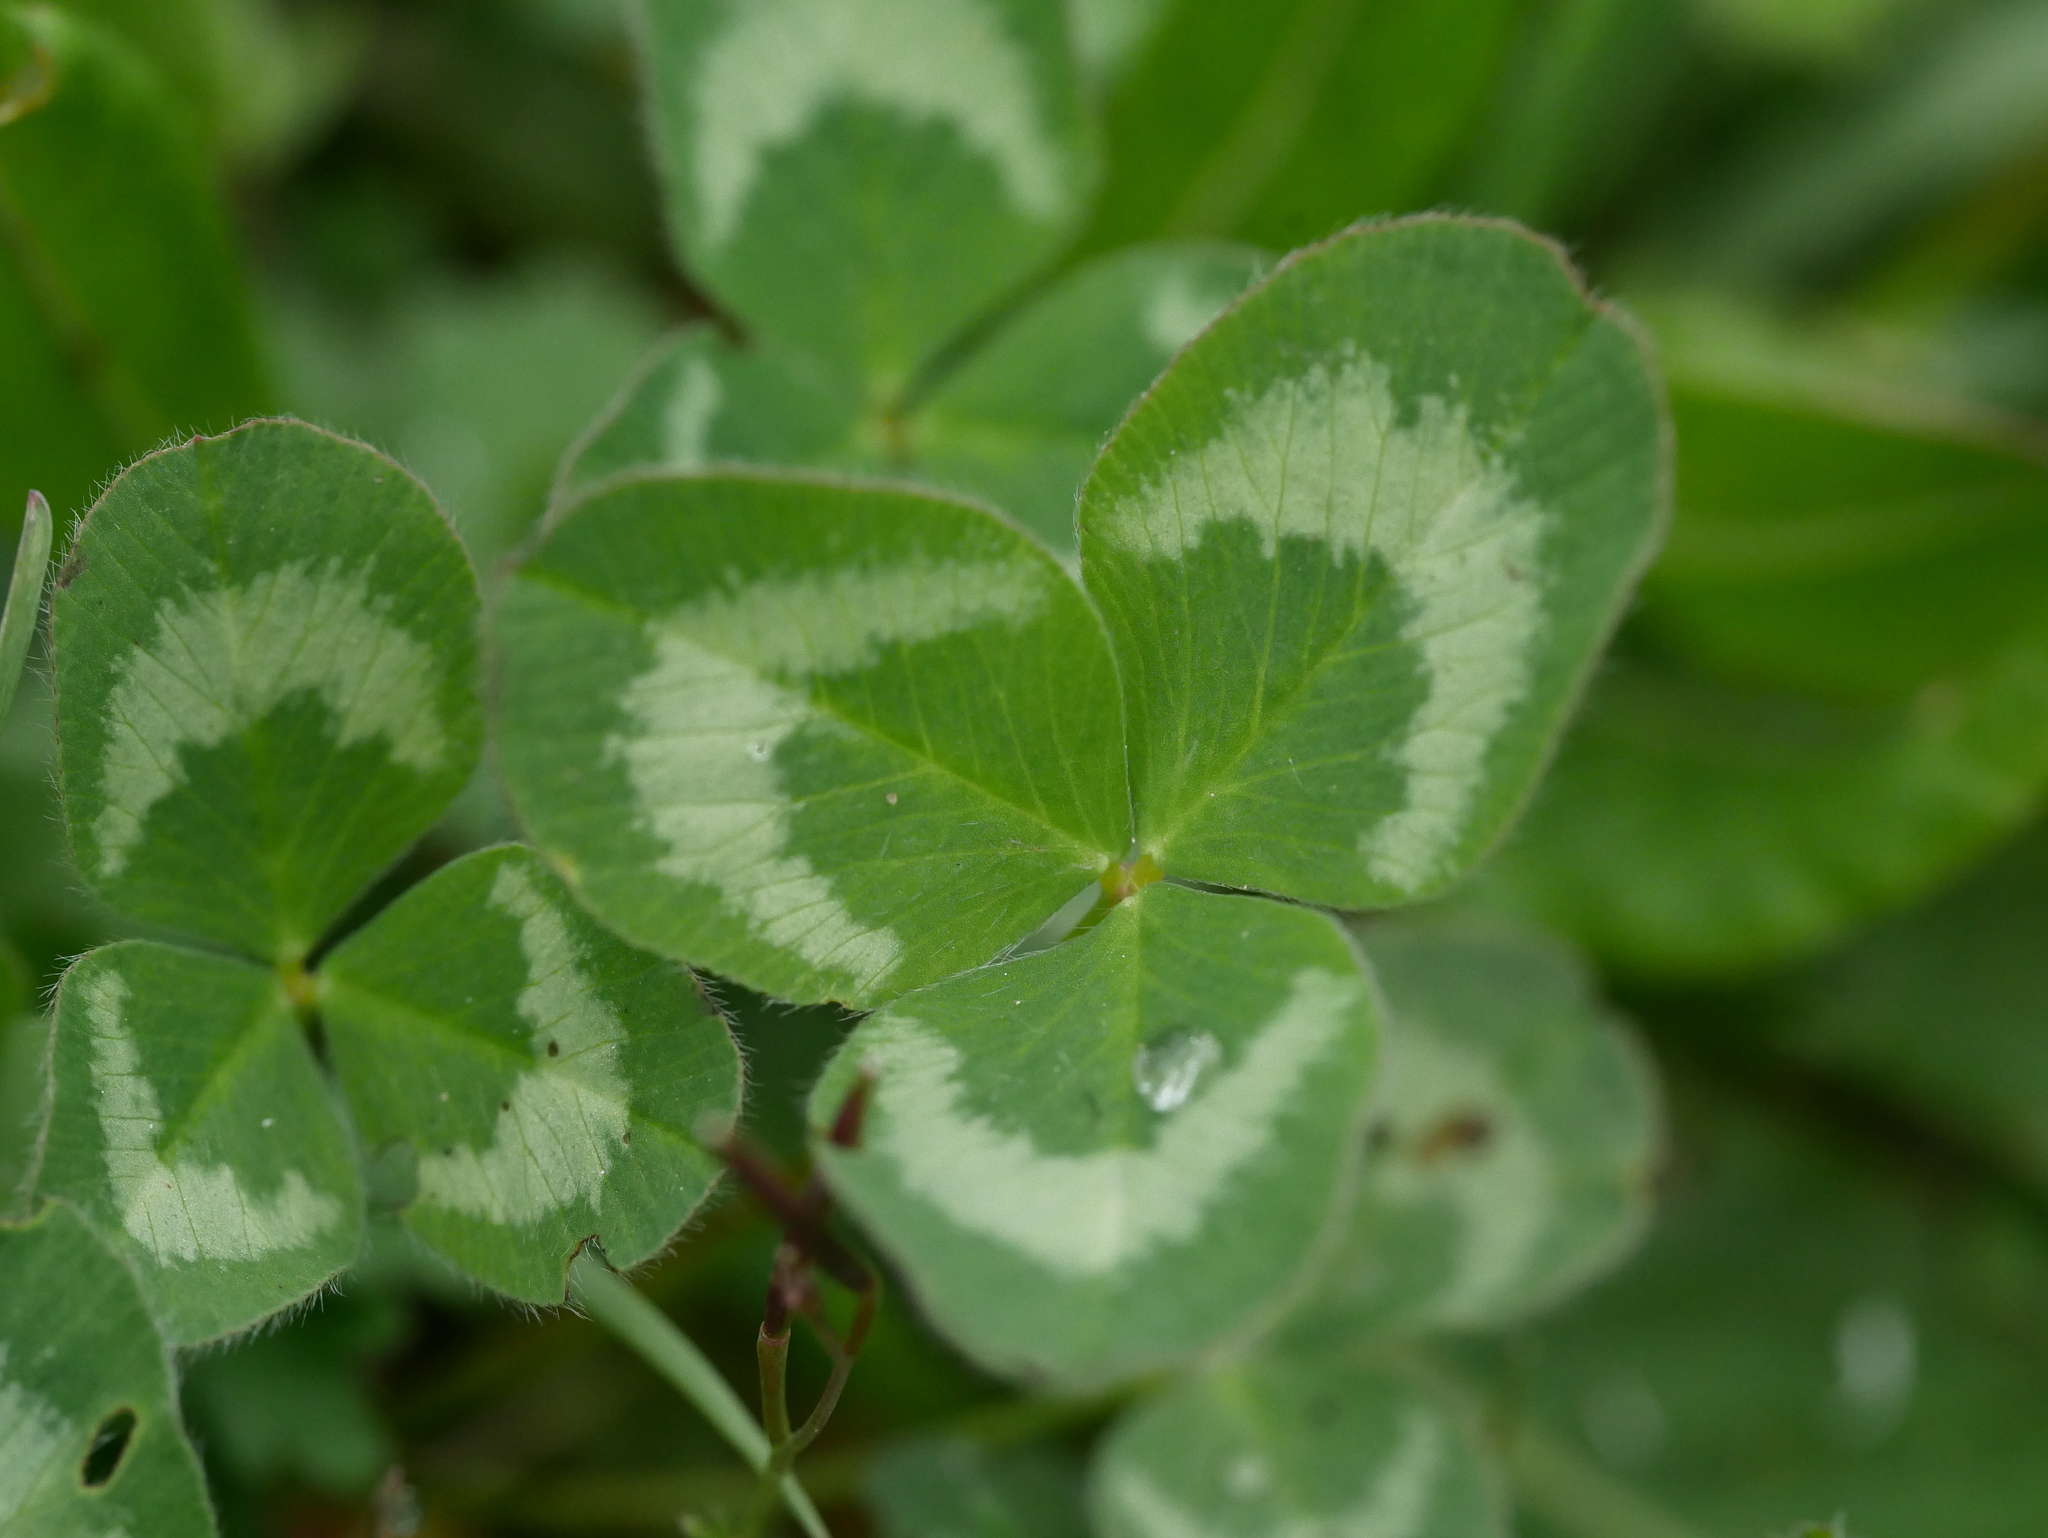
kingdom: Plantae
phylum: Tracheophyta
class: Magnoliopsida
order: Fabales
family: Fabaceae
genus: Trifolium
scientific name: Trifolium repens
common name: White clover
